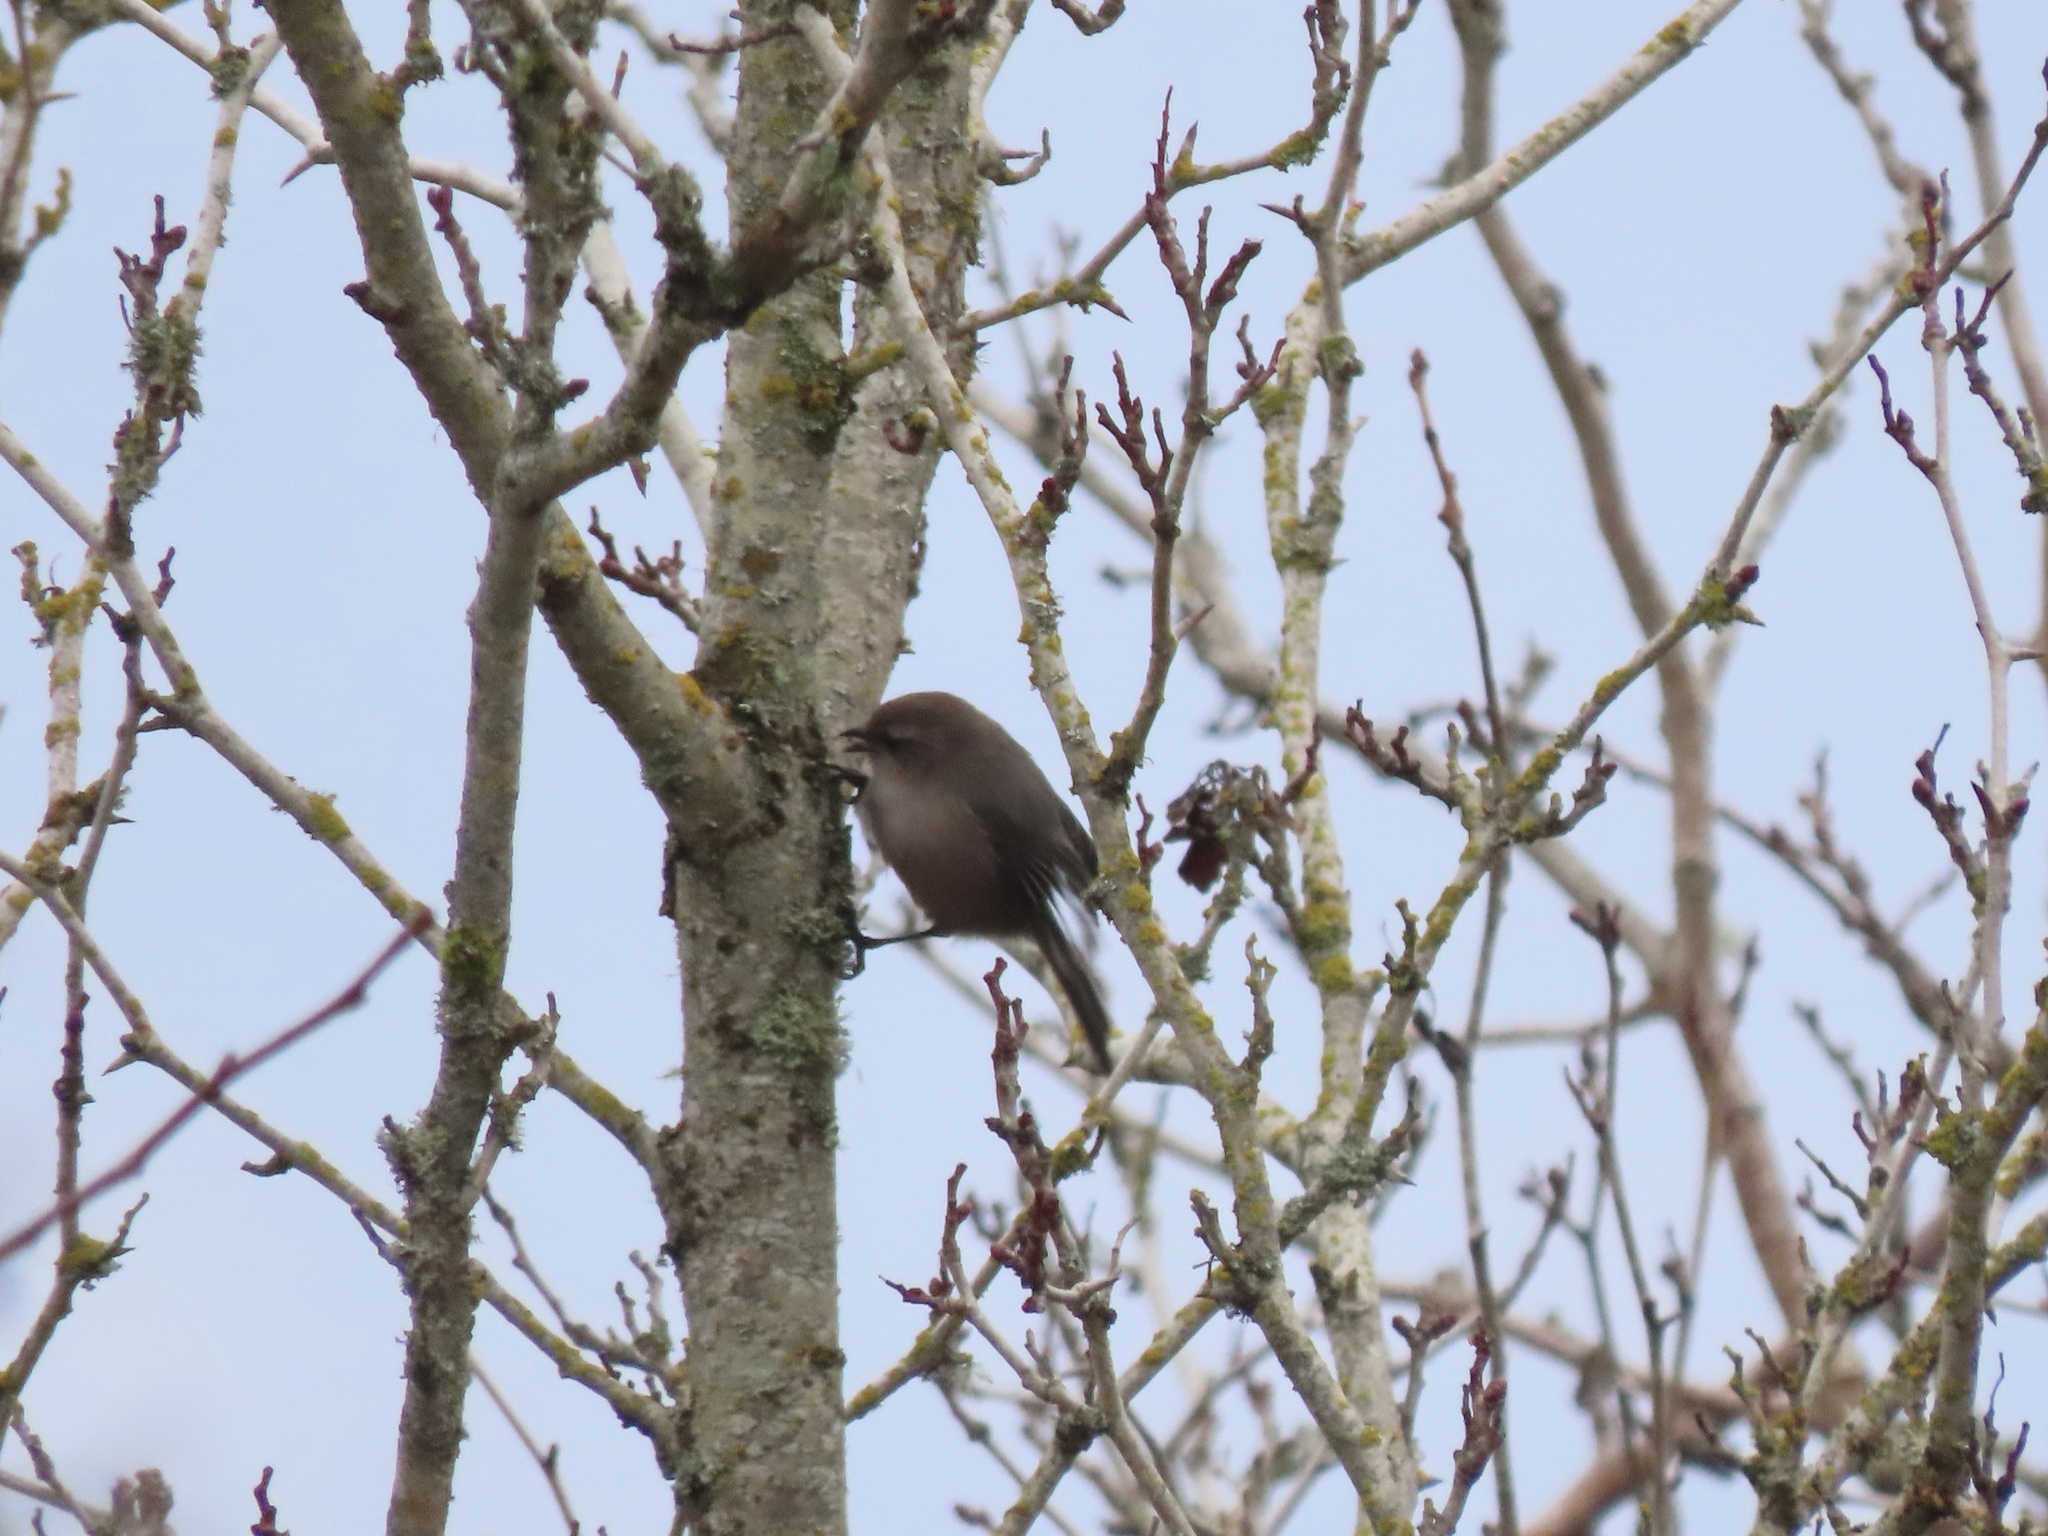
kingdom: Animalia
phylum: Chordata
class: Aves
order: Passeriformes
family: Aegithalidae
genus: Psaltriparus
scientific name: Psaltriparus minimus
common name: American bushtit
